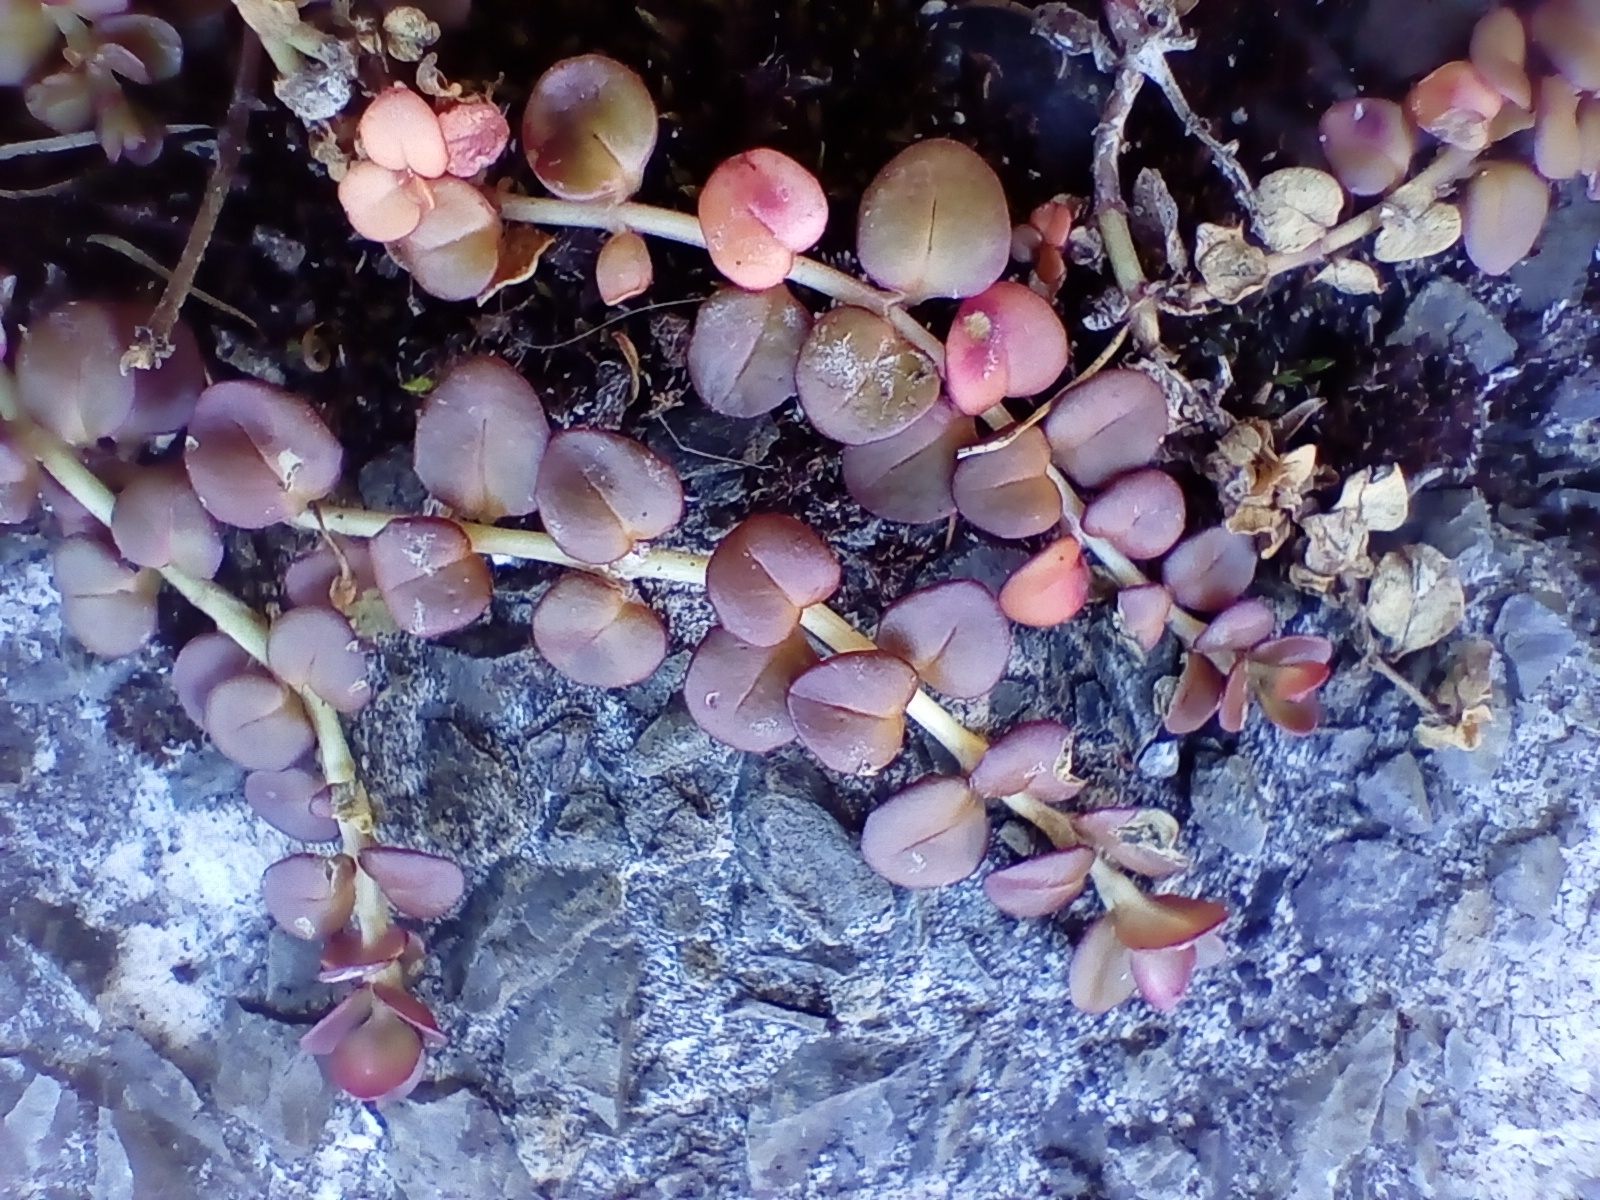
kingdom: Plantae
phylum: Tracheophyta
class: Magnoliopsida
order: Myrtales
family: Onagraceae
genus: Epilobium
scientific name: Epilobium brunnescens
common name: New zealand willowherb
